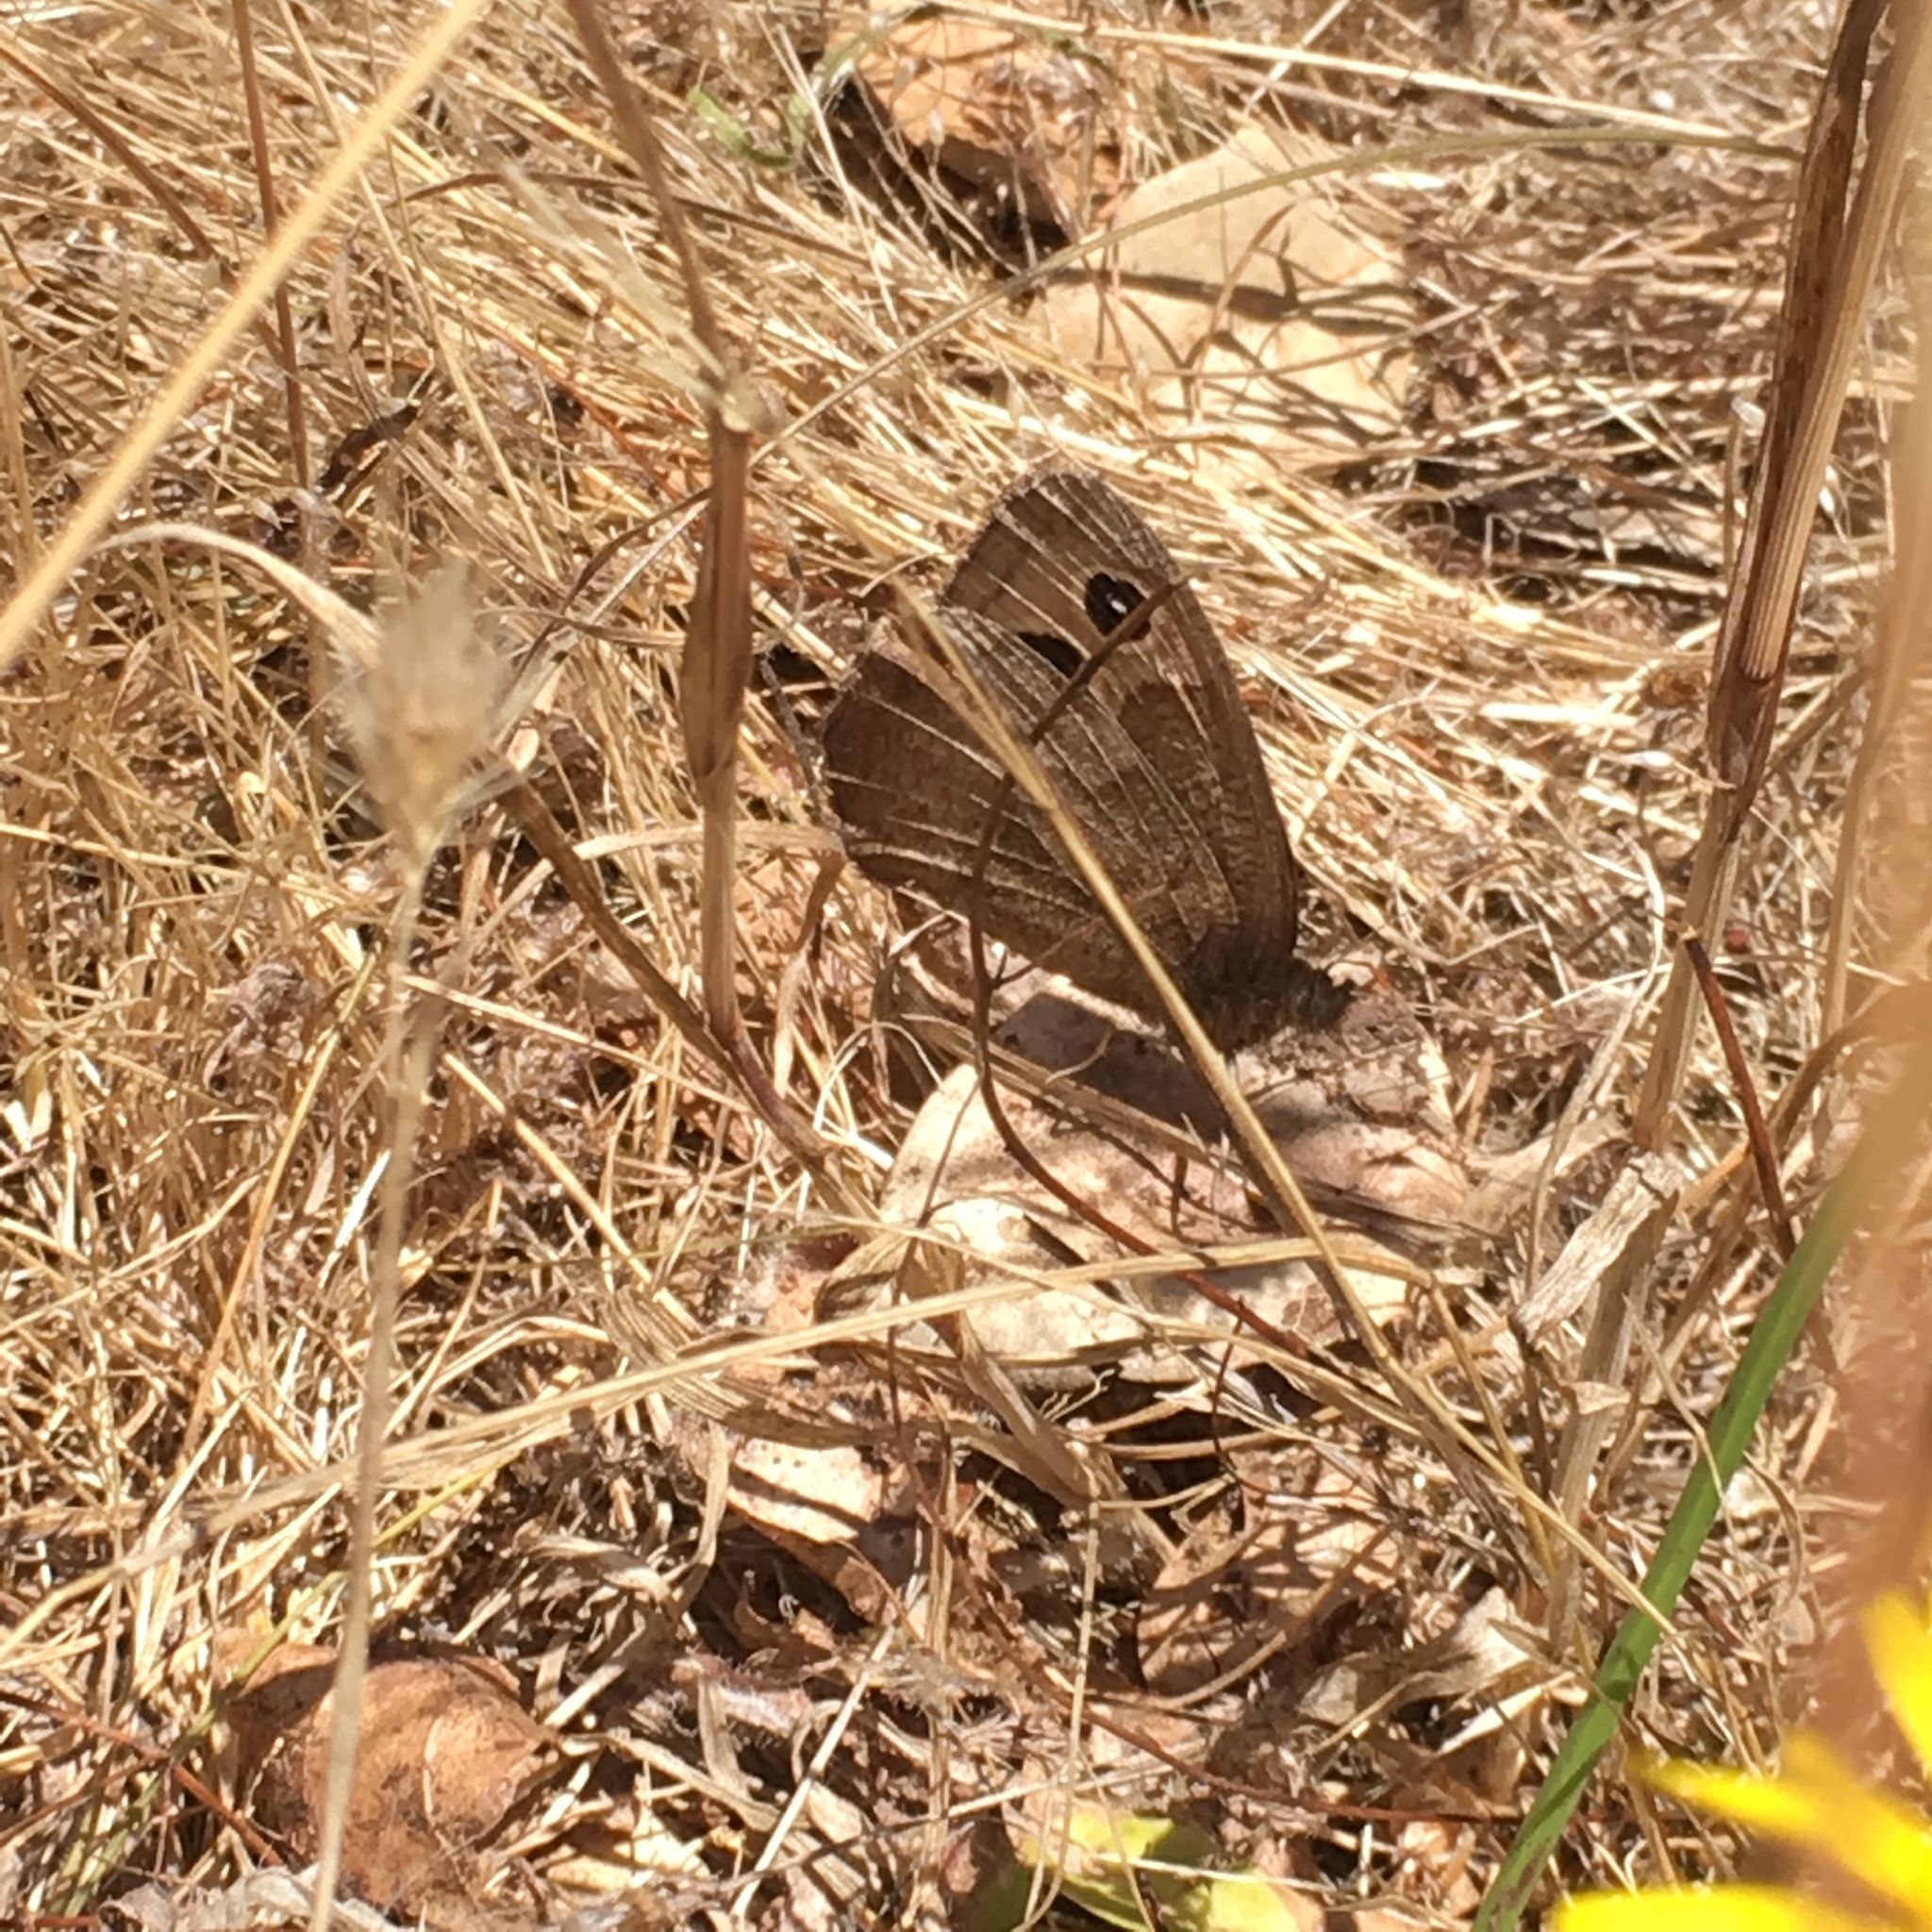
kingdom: Animalia
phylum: Arthropoda
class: Insecta
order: Lepidoptera
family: Nymphalidae
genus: Cercyonis
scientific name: Cercyonis pegala
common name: Common wood-nymph
